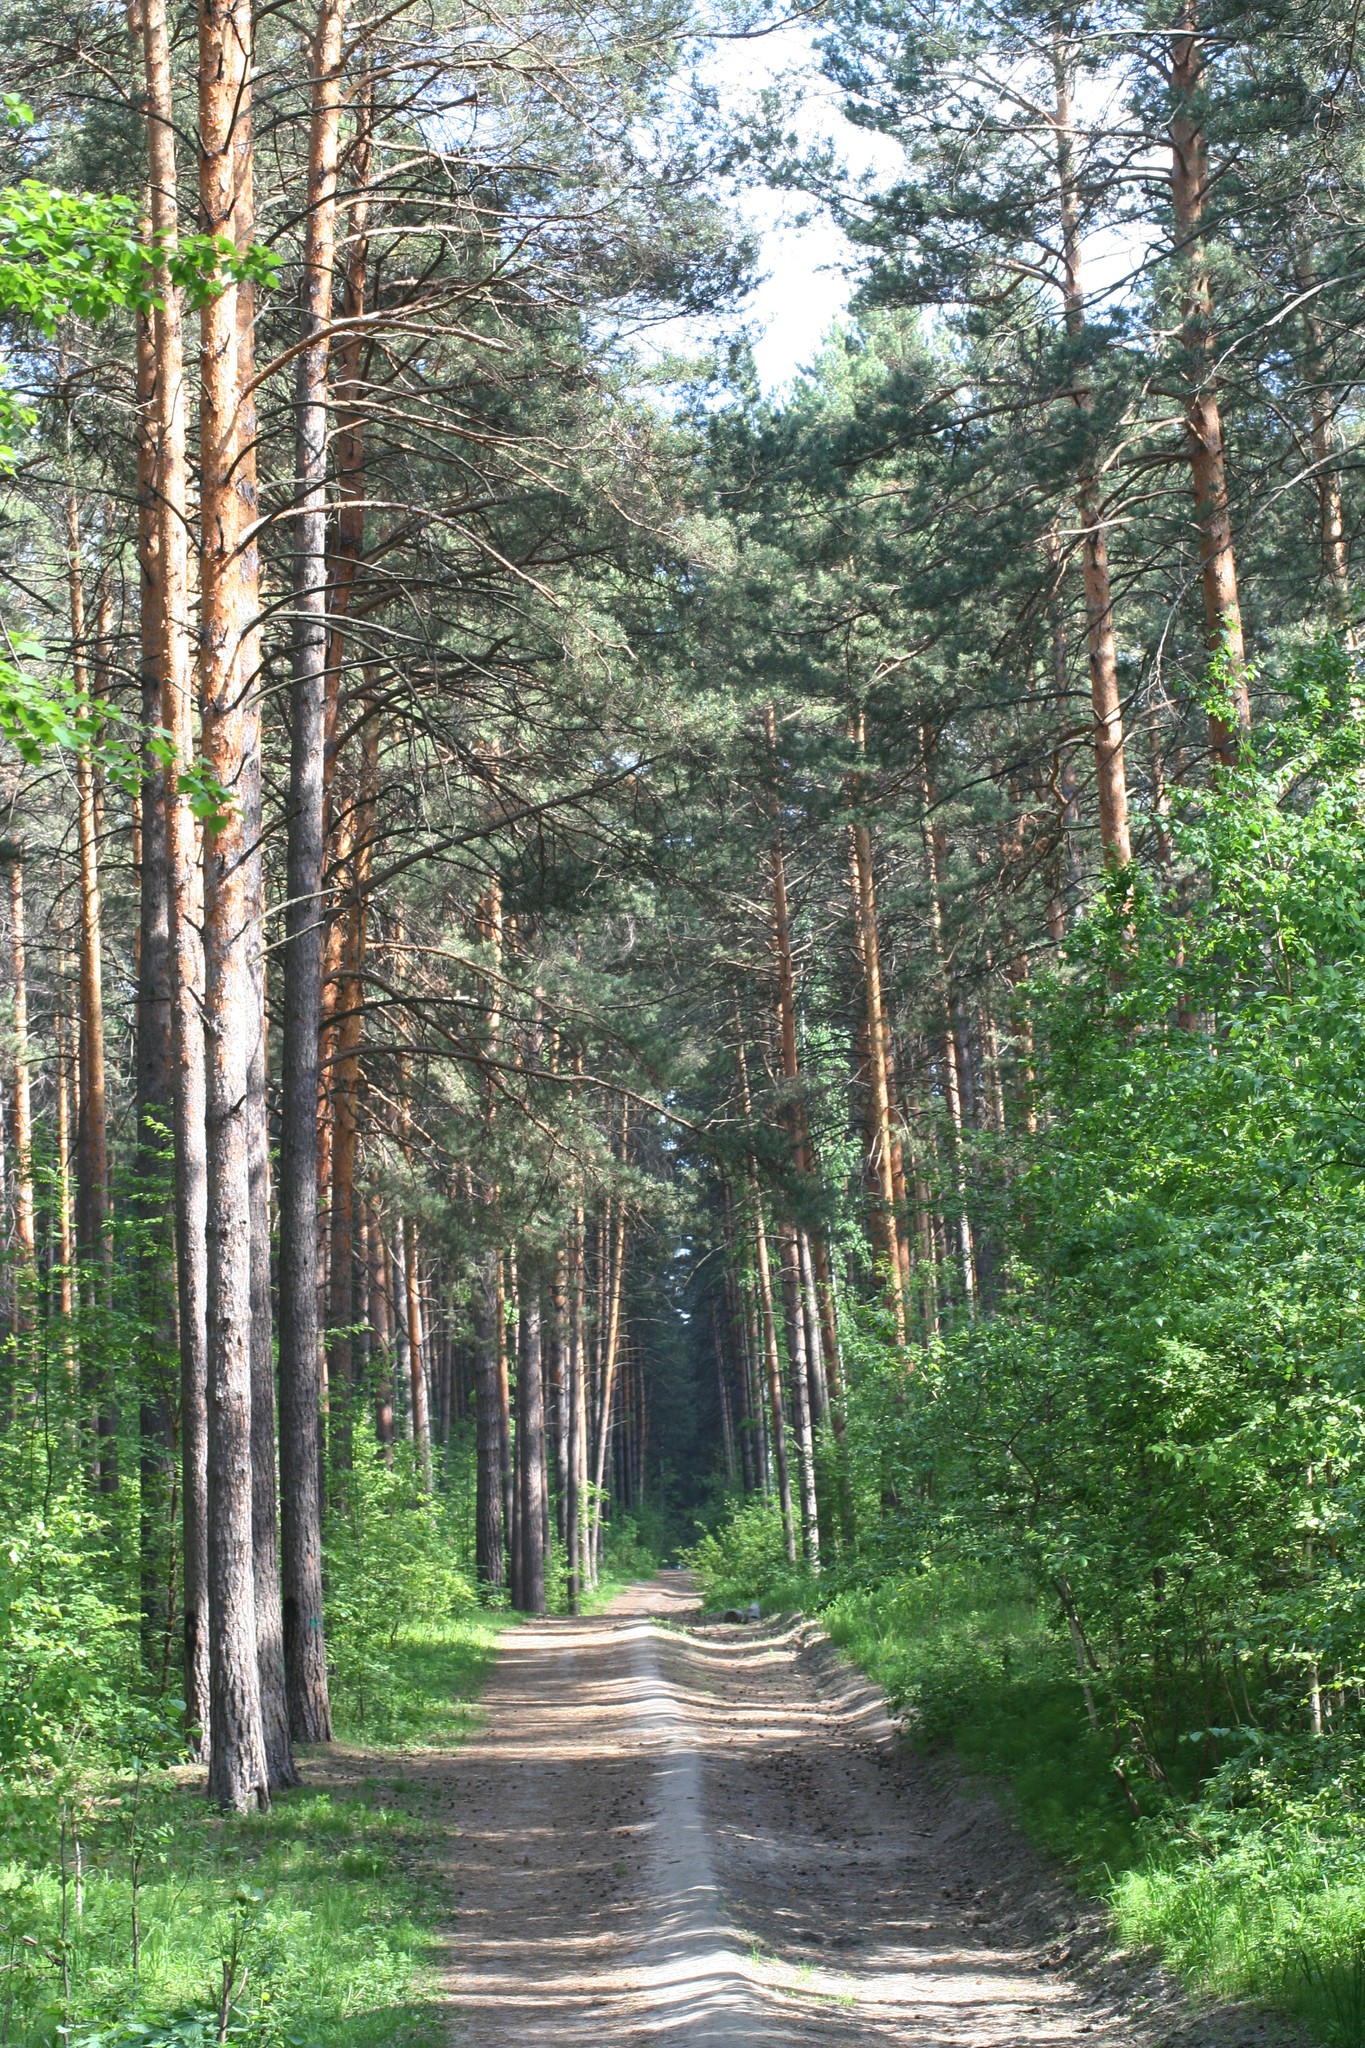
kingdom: Plantae
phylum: Tracheophyta
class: Pinopsida
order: Pinales
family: Pinaceae
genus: Pinus
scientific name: Pinus sylvestris
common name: Scots pine
